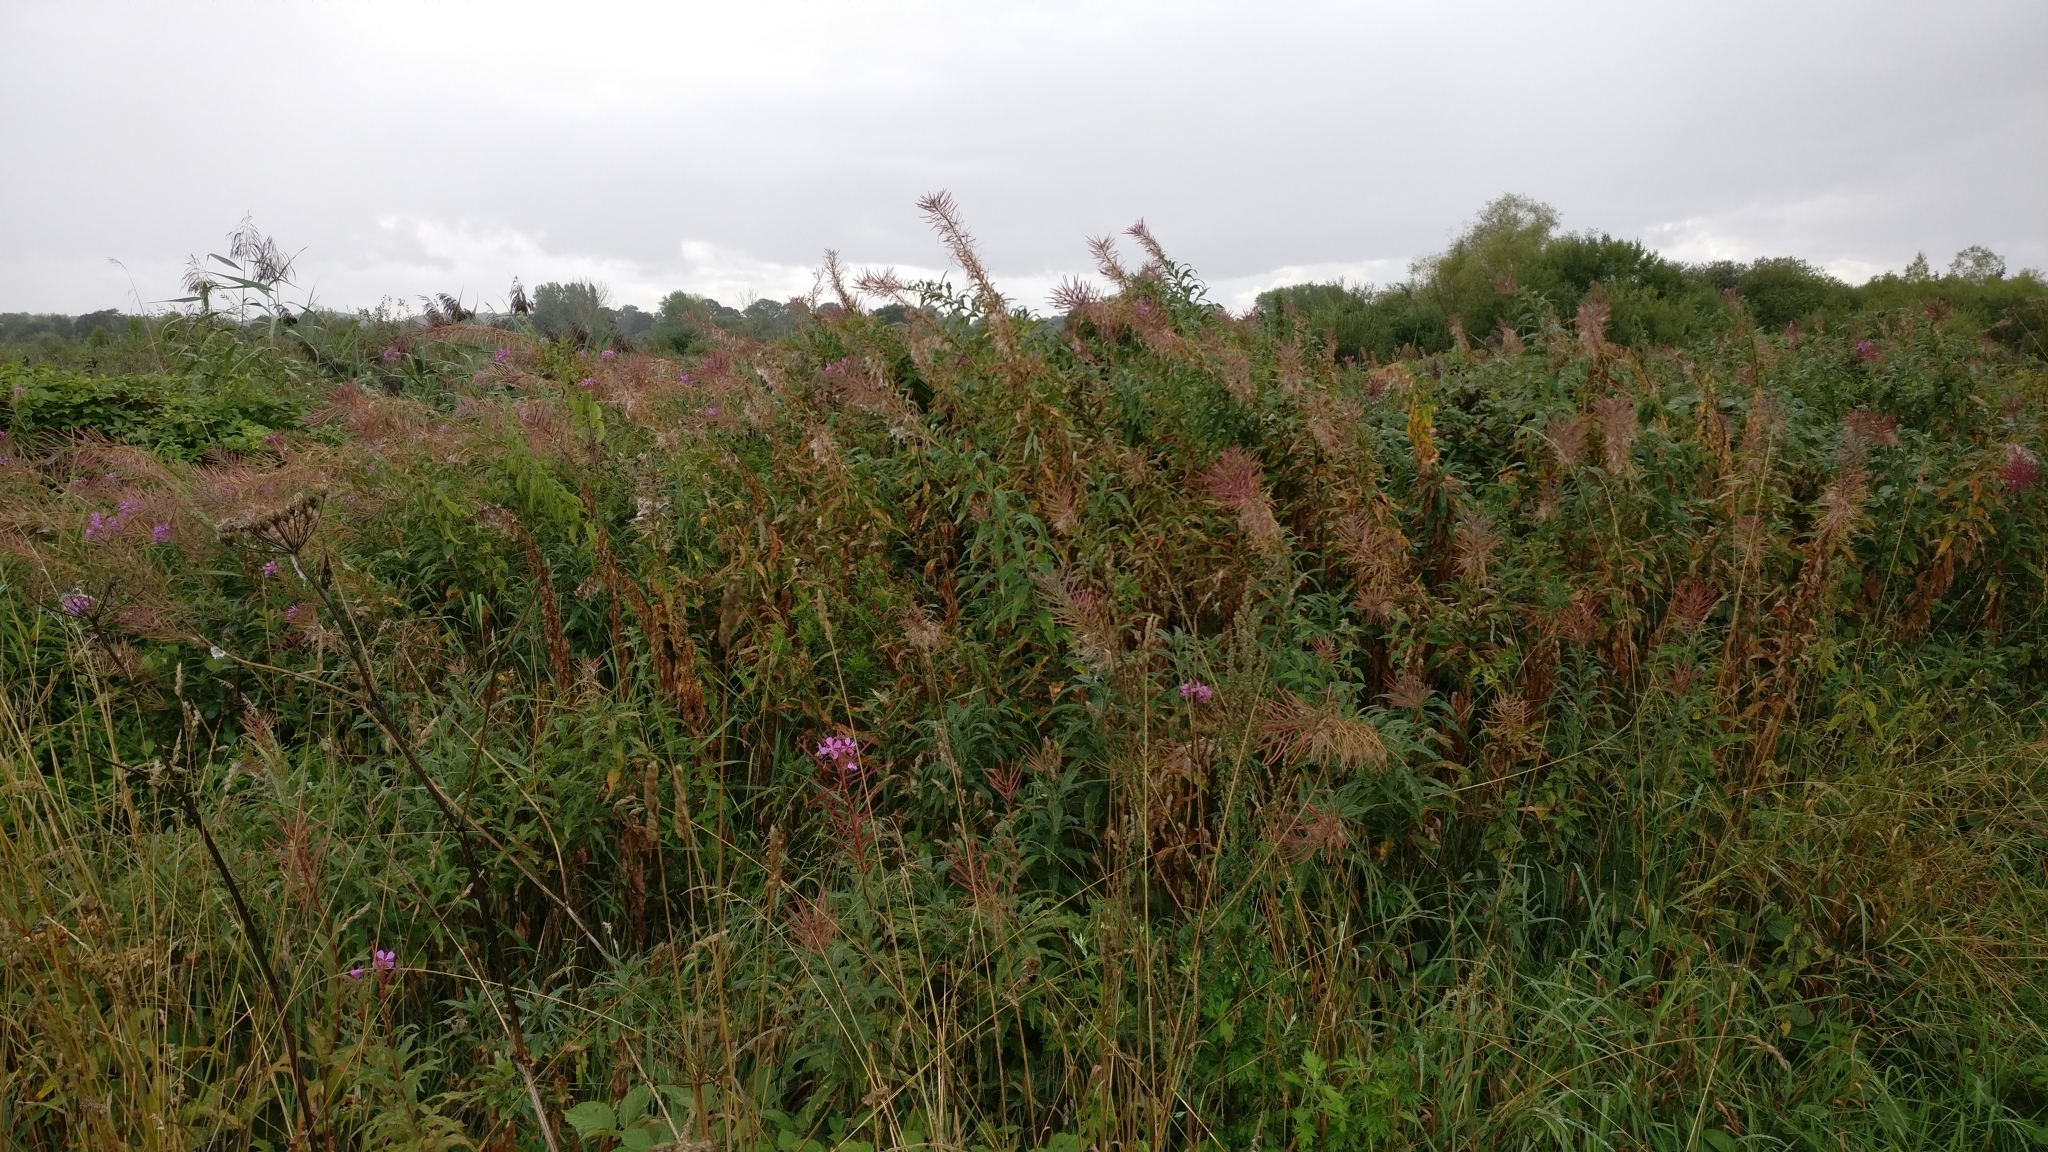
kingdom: Plantae
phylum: Tracheophyta
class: Magnoliopsida
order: Myrtales
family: Onagraceae
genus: Chamaenerion
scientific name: Chamaenerion angustifolium
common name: Fireweed
